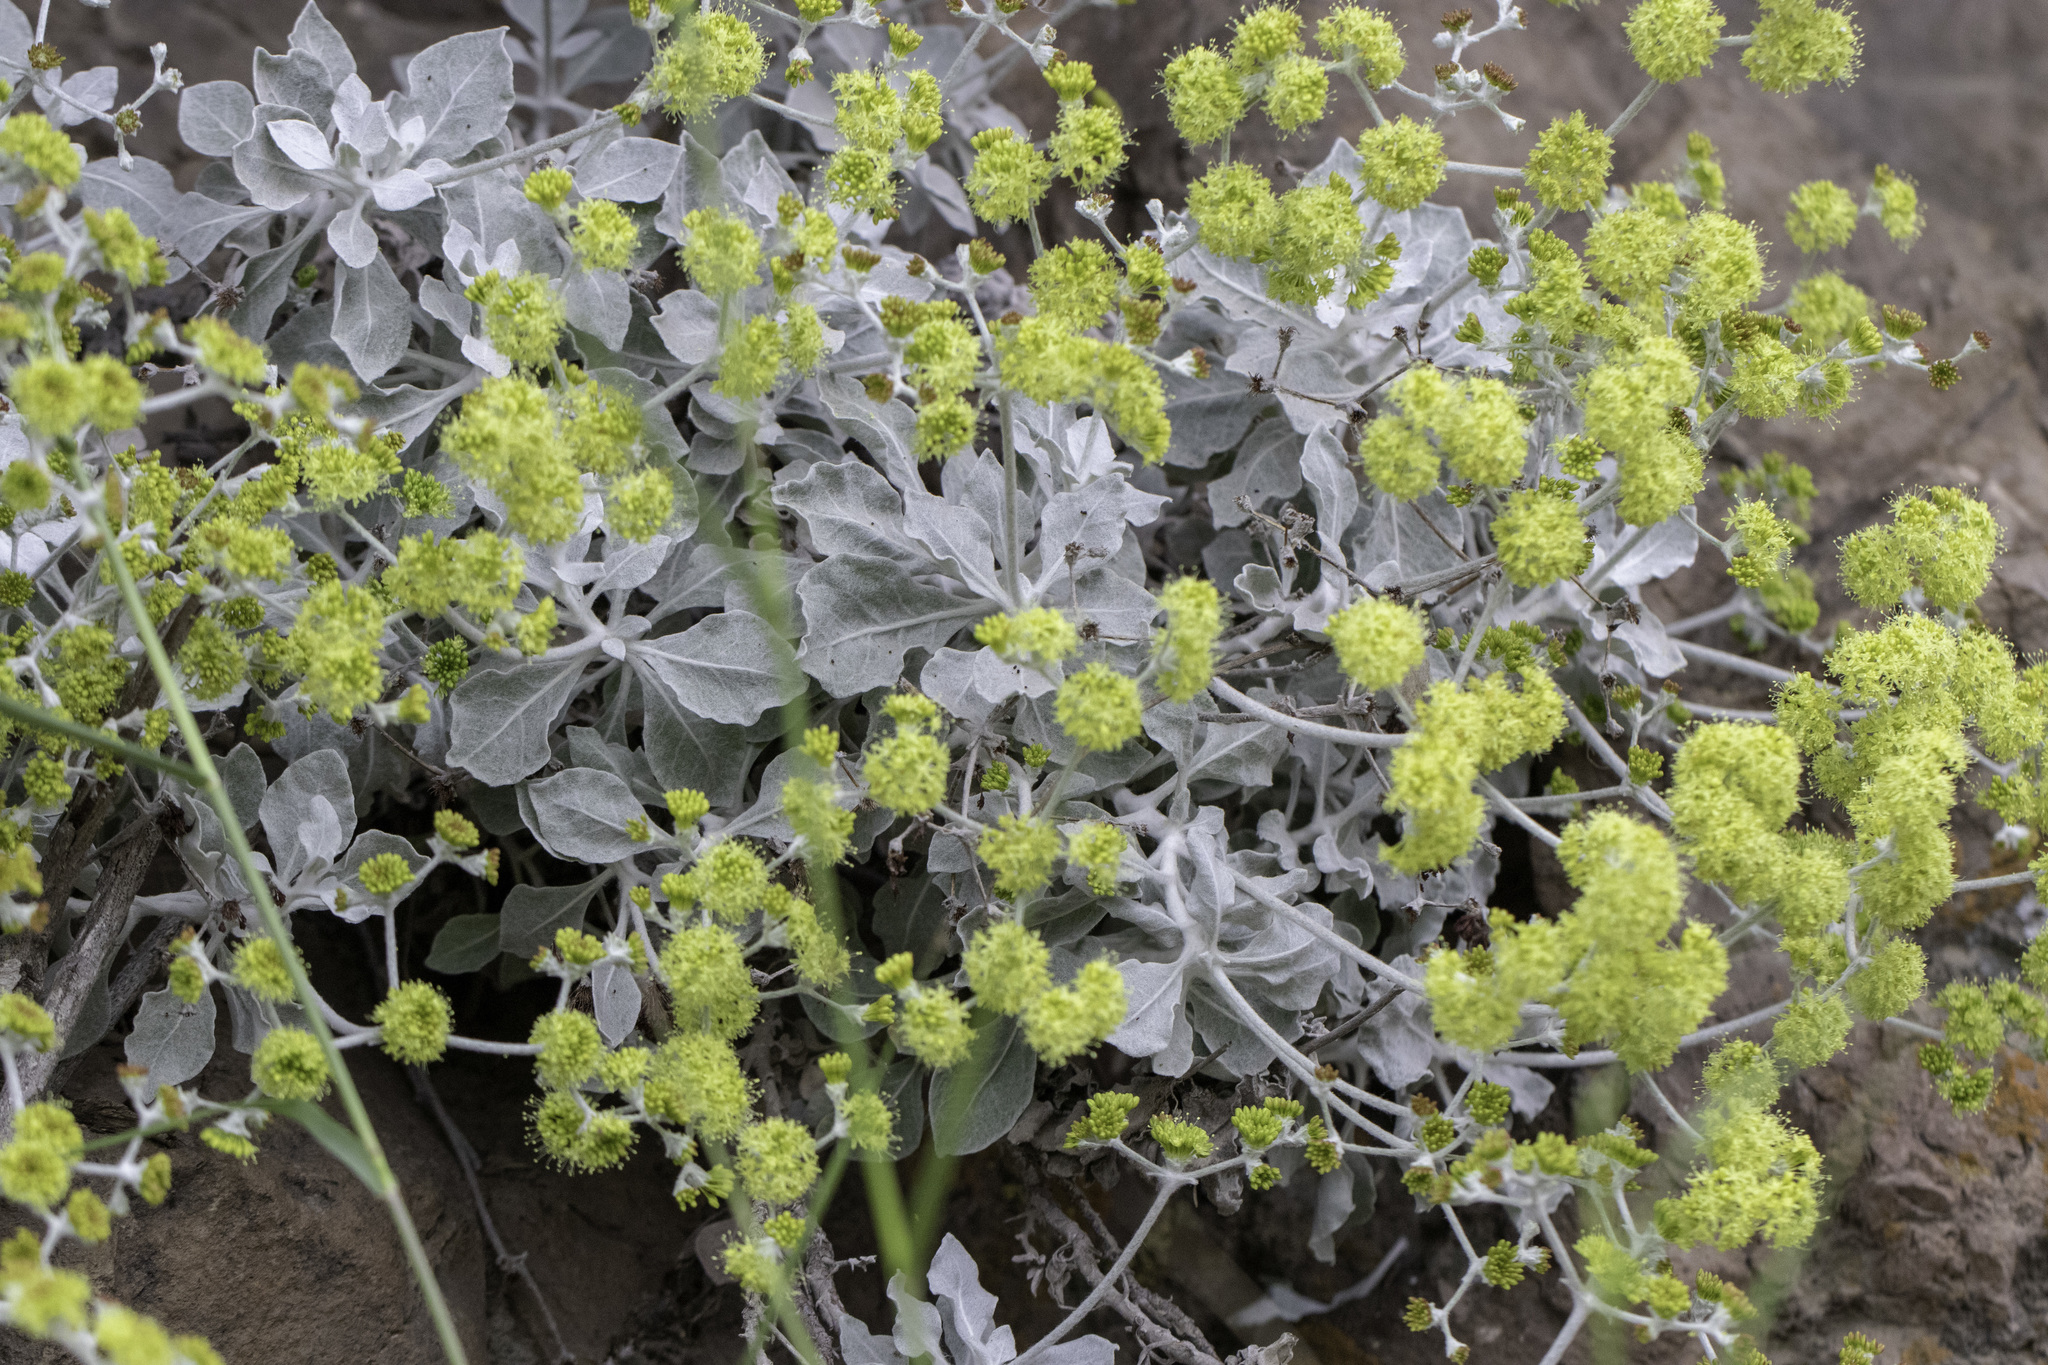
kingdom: Plantae
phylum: Tracheophyta
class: Magnoliopsida
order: Caryophyllales
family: Polygonaceae
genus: Eriogonum
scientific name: Eriogonum crocatum
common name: Saffron wild buckwheat
